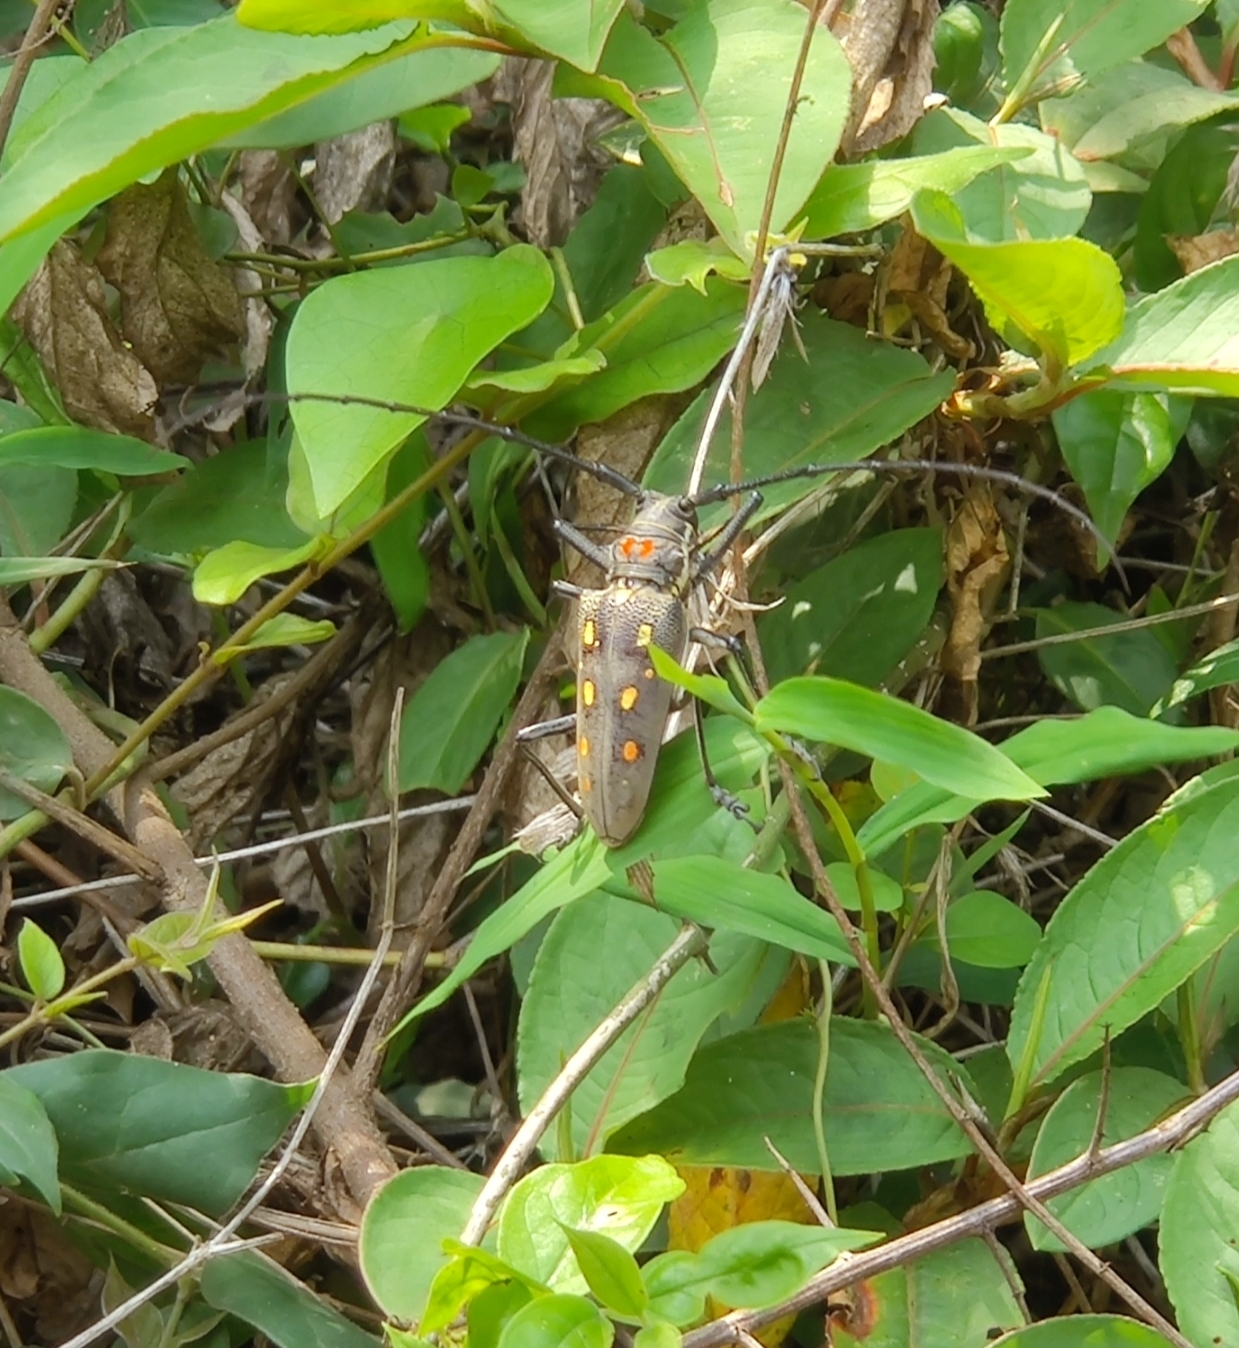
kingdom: Animalia
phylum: Arthropoda
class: Insecta
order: Coleoptera
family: Cerambycidae
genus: Batocera
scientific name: Batocera rubus
